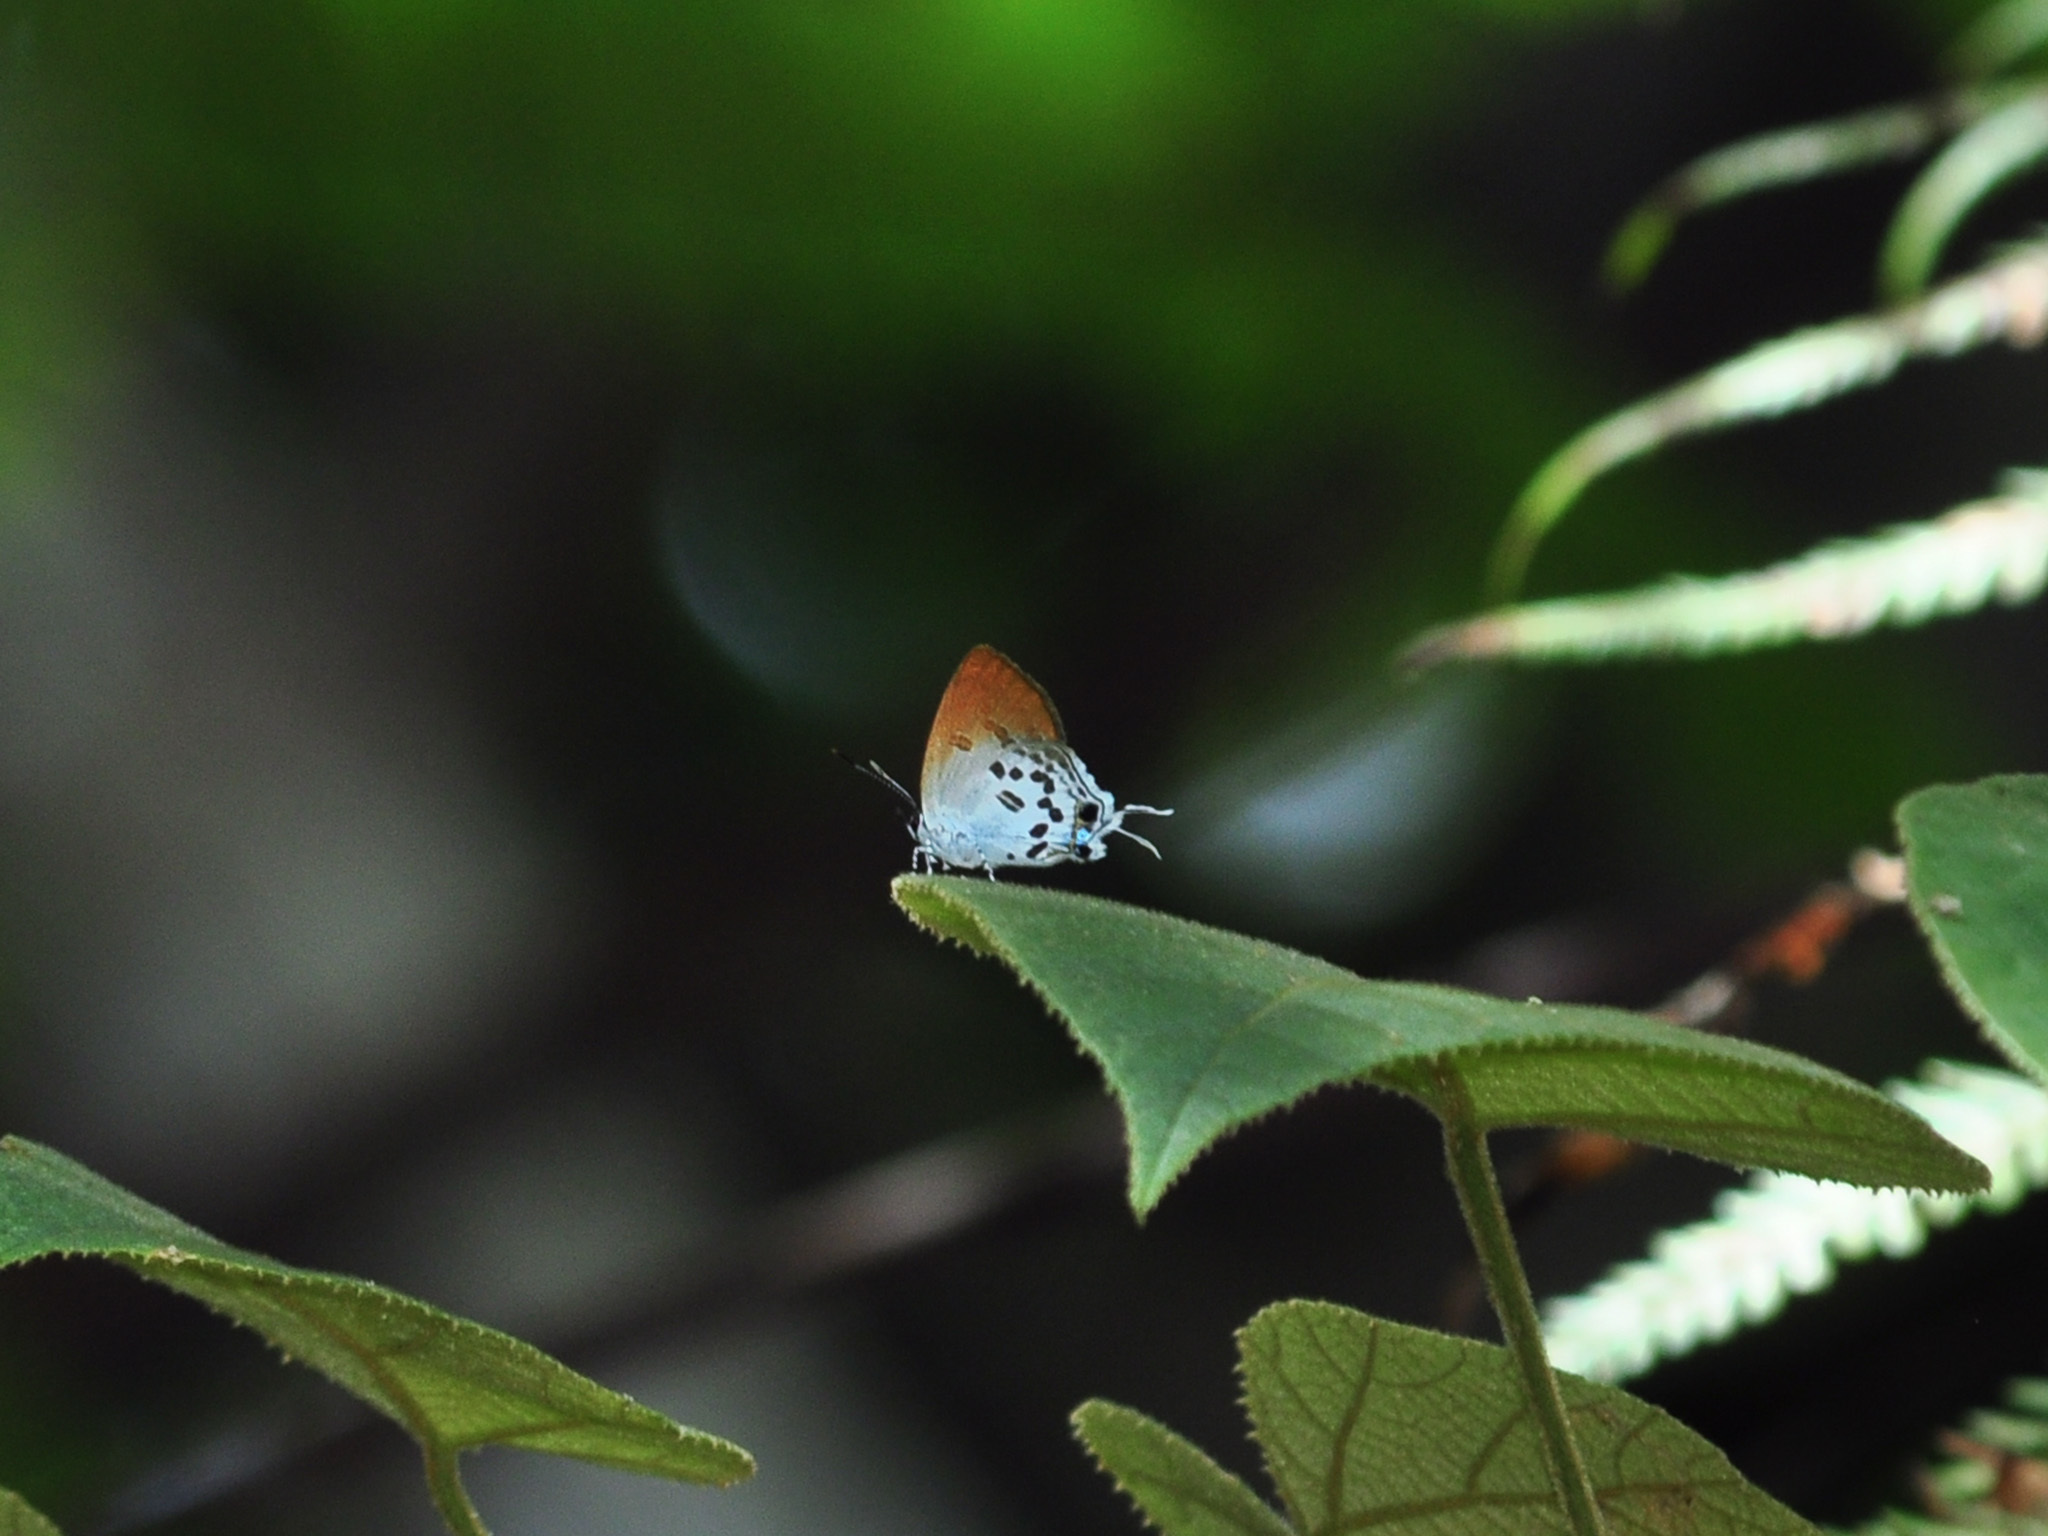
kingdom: Animalia
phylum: Arthropoda
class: Insecta
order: Lepidoptera
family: Lycaenidae
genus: Sinthusa
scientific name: Sinthusa malika
